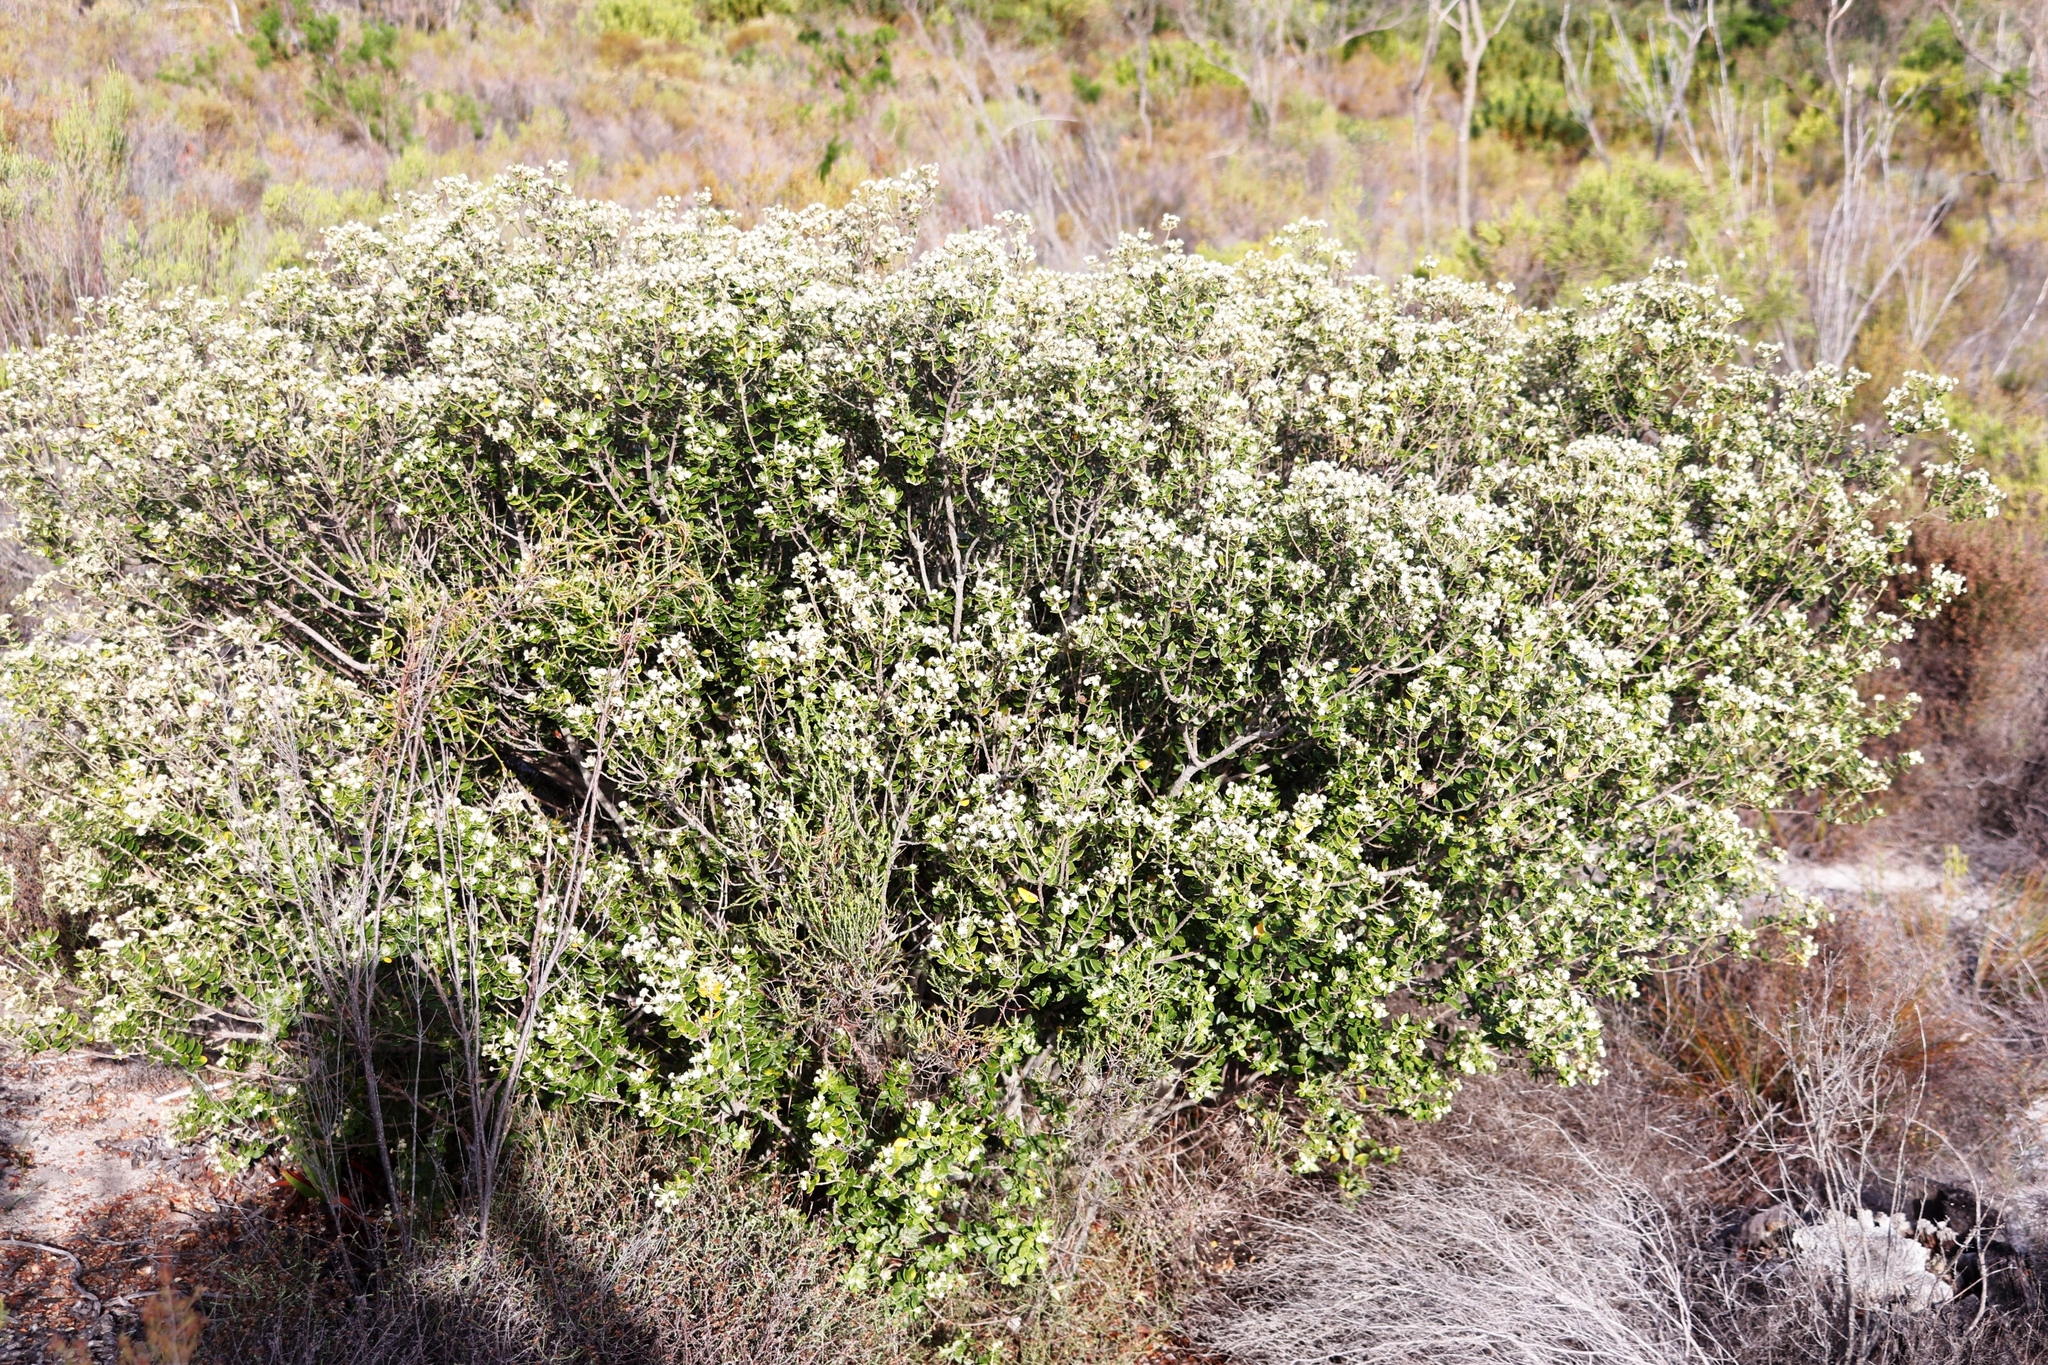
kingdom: Plantae
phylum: Tracheophyta
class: Magnoliopsida
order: Rosales
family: Rhamnaceae
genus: Phylica
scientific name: Phylica buxifolia
